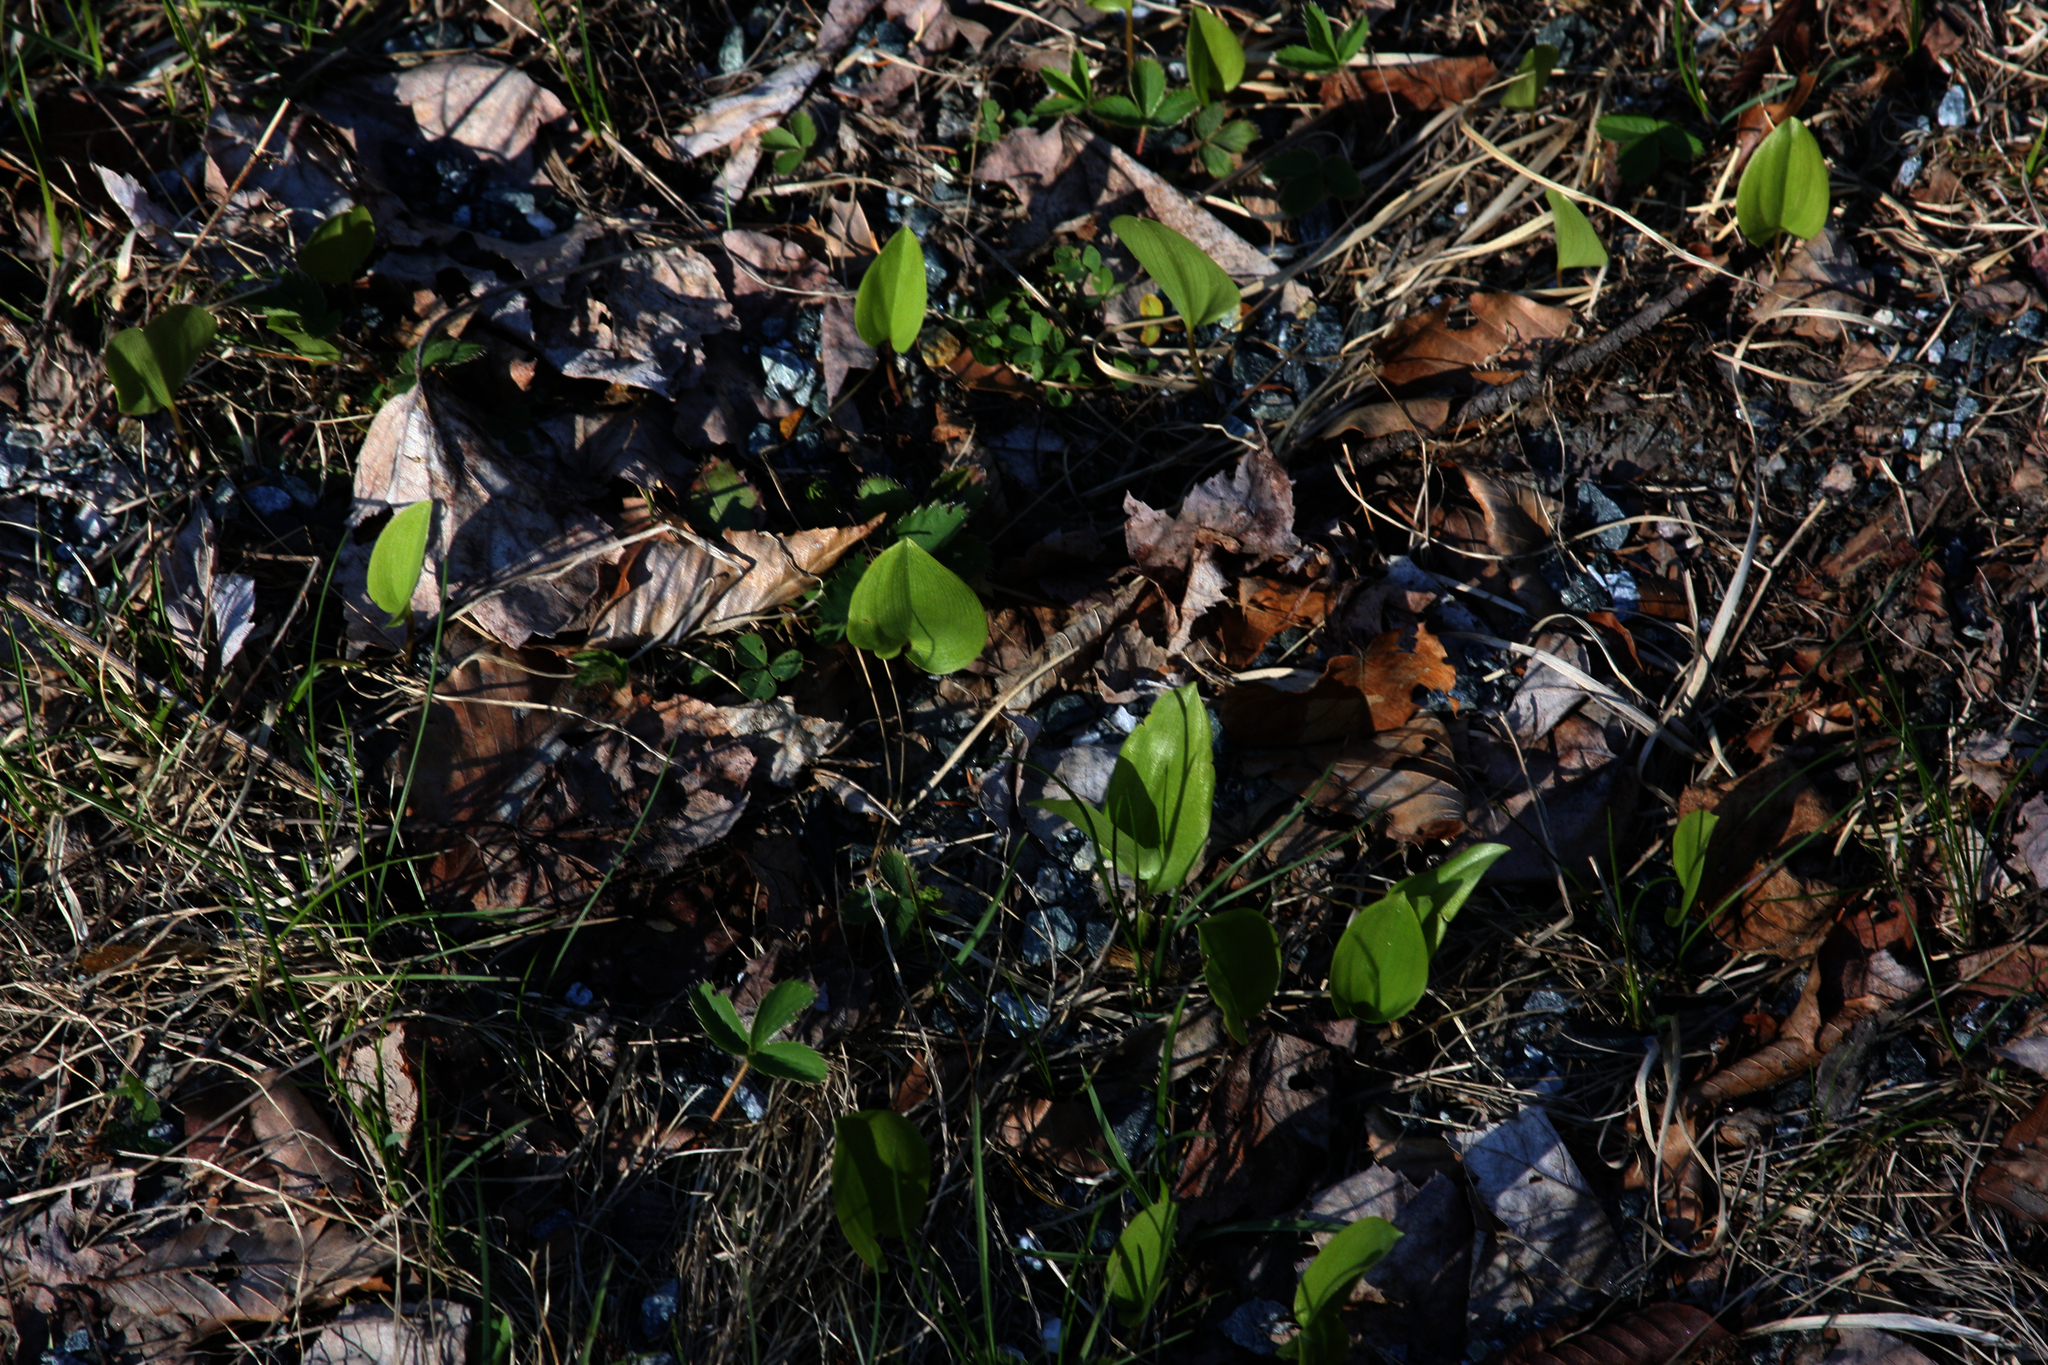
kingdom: Plantae
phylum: Tracheophyta
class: Liliopsida
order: Asparagales
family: Asparagaceae
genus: Maianthemum
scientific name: Maianthemum canadense
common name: False lily-of-the-valley
